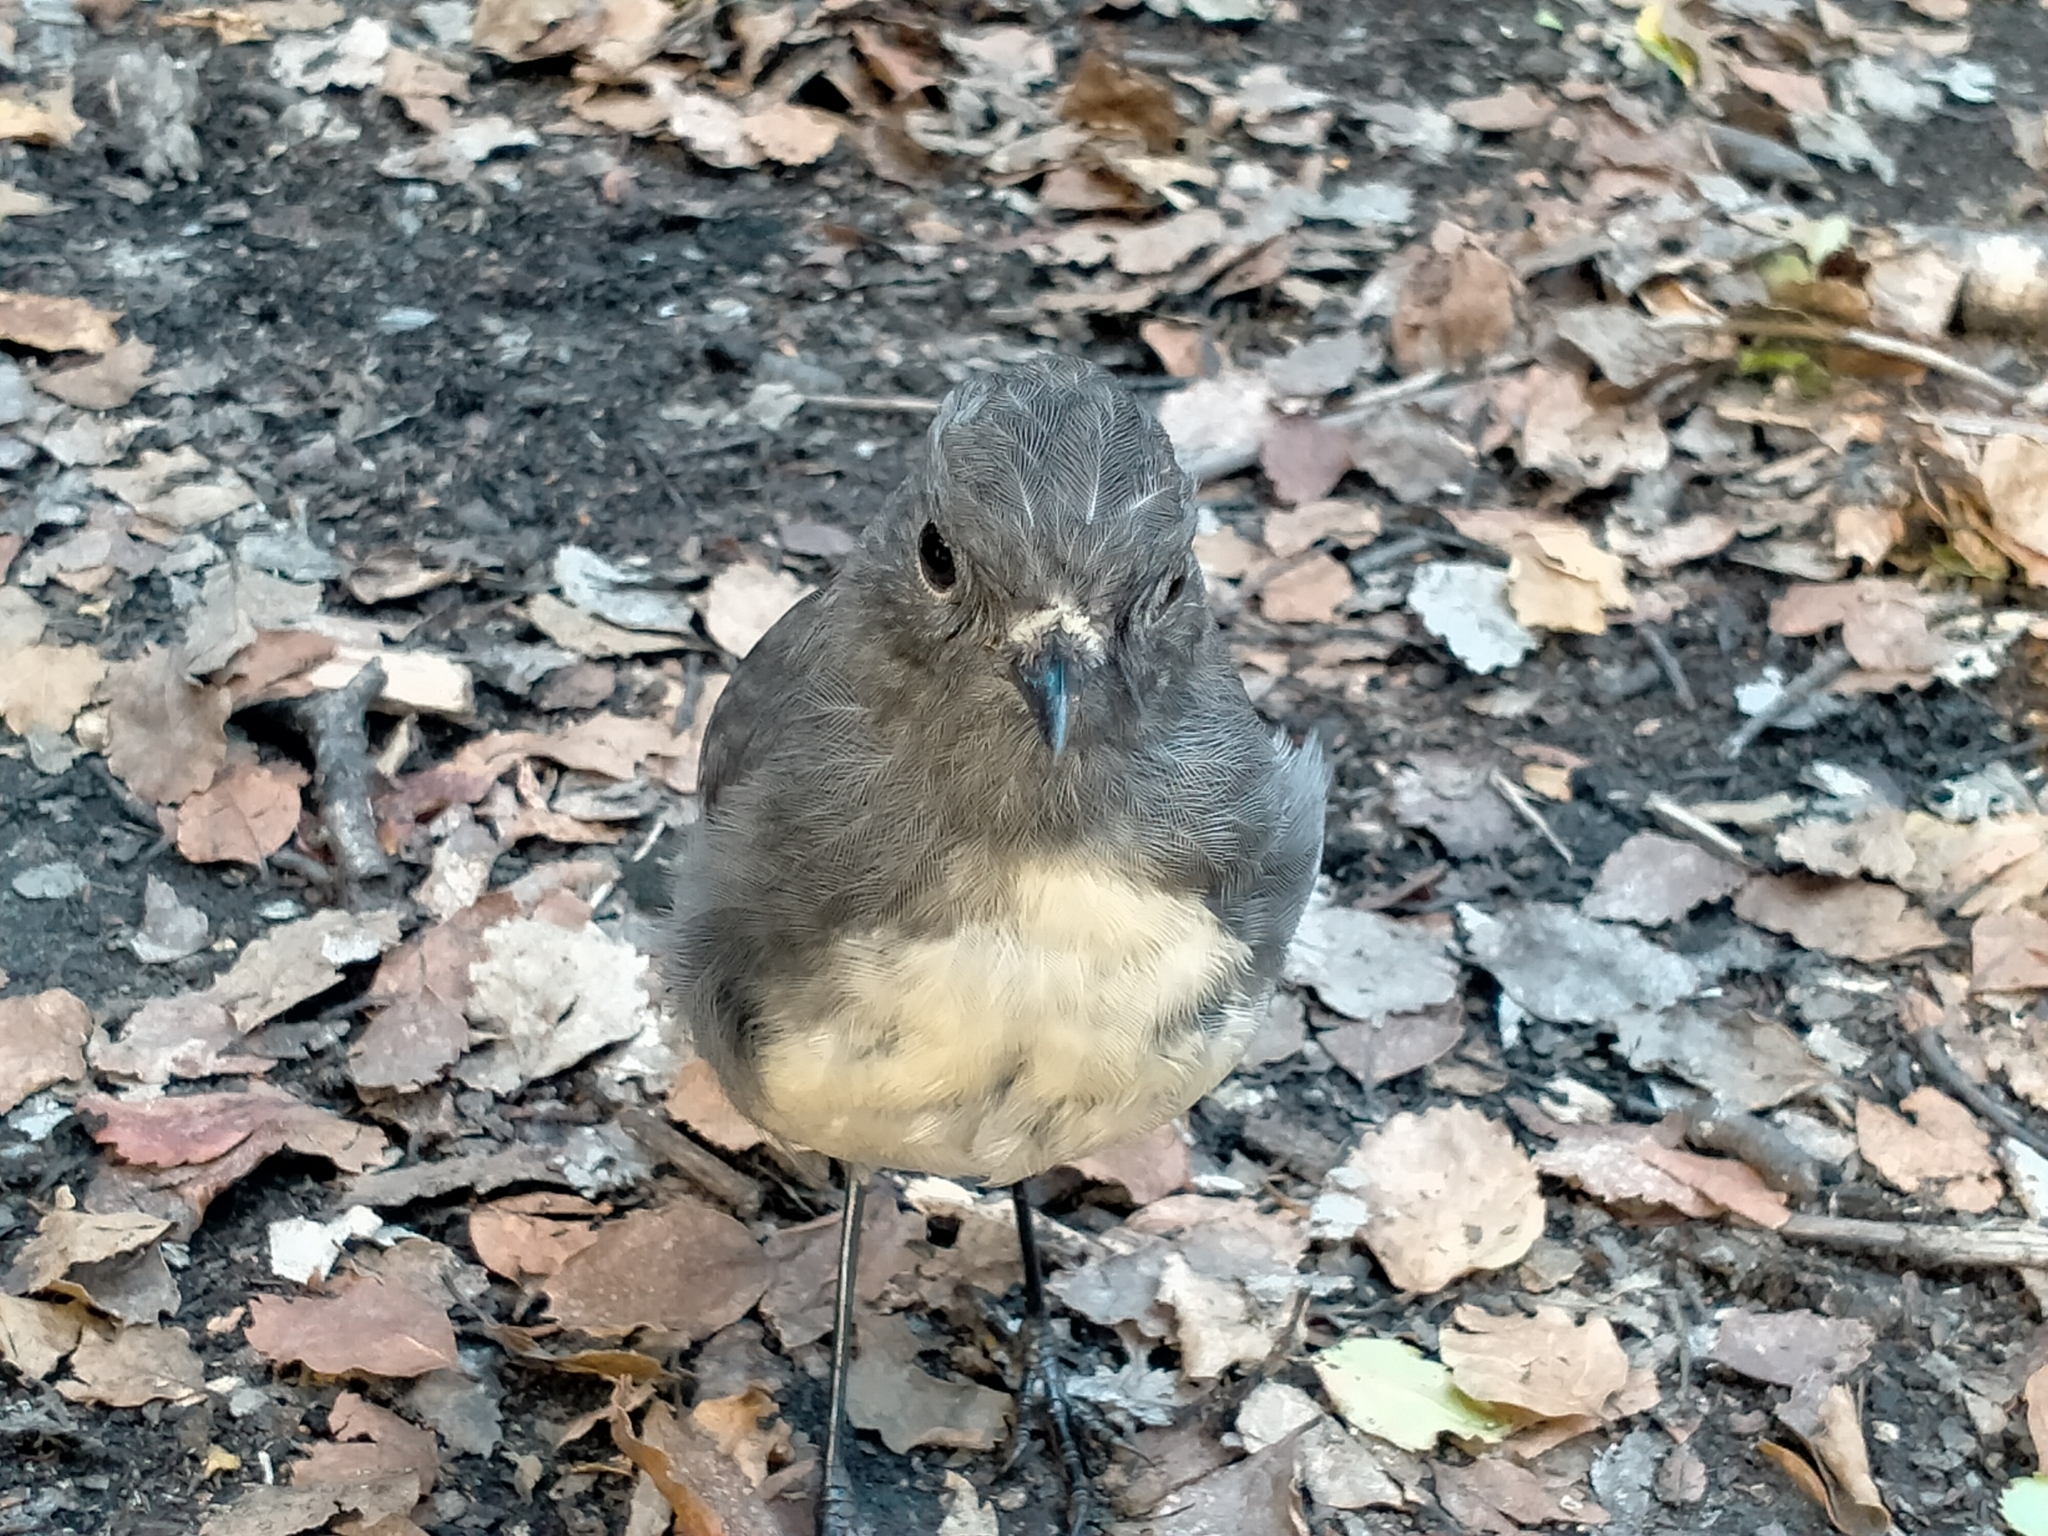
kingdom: Animalia
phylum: Chordata
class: Aves
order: Passeriformes
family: Petroicidae
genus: Petroica
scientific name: Petroica australis
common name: New zealand robin
